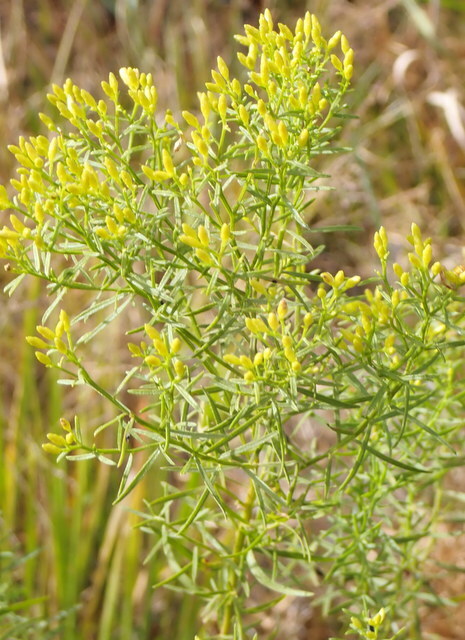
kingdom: Plantae
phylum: Tracheophyta
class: Magnoliopsida
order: Asterales
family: Asteraceae
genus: Euthamia
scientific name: Euthamia caroliniana
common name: Coastal plain goldentop
